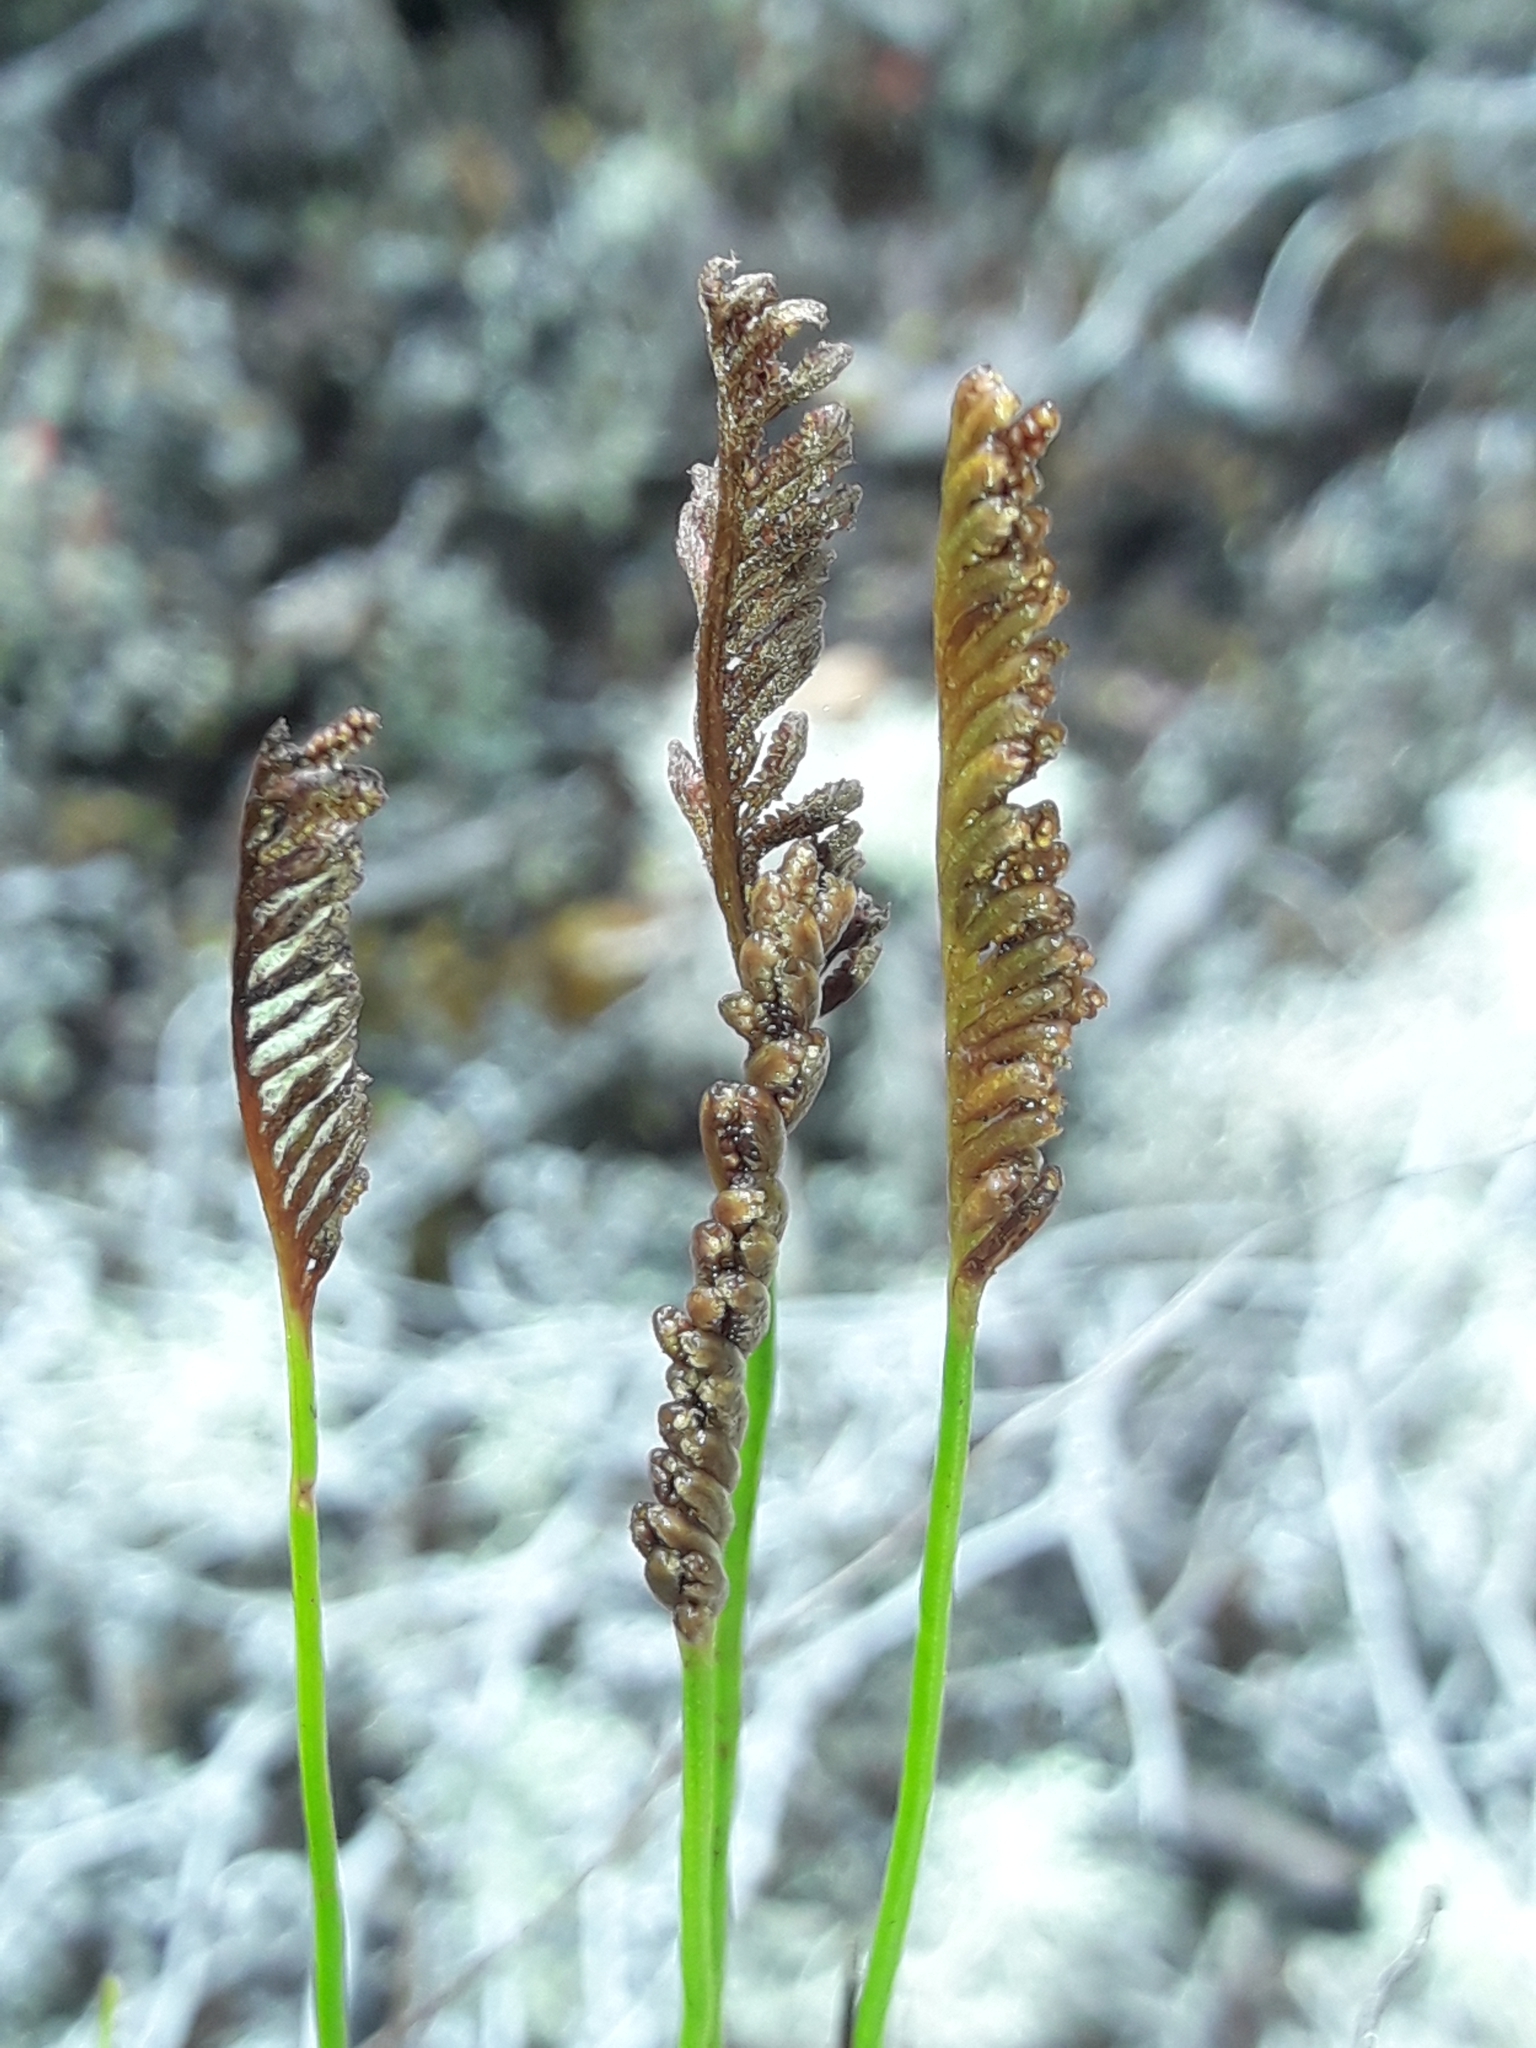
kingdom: Plantae
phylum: Tracheophyta
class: Polypodiopsida
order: Schizaeales
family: Schizaeaceae
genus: Microschizaea
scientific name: Microschizaea fistulosa
